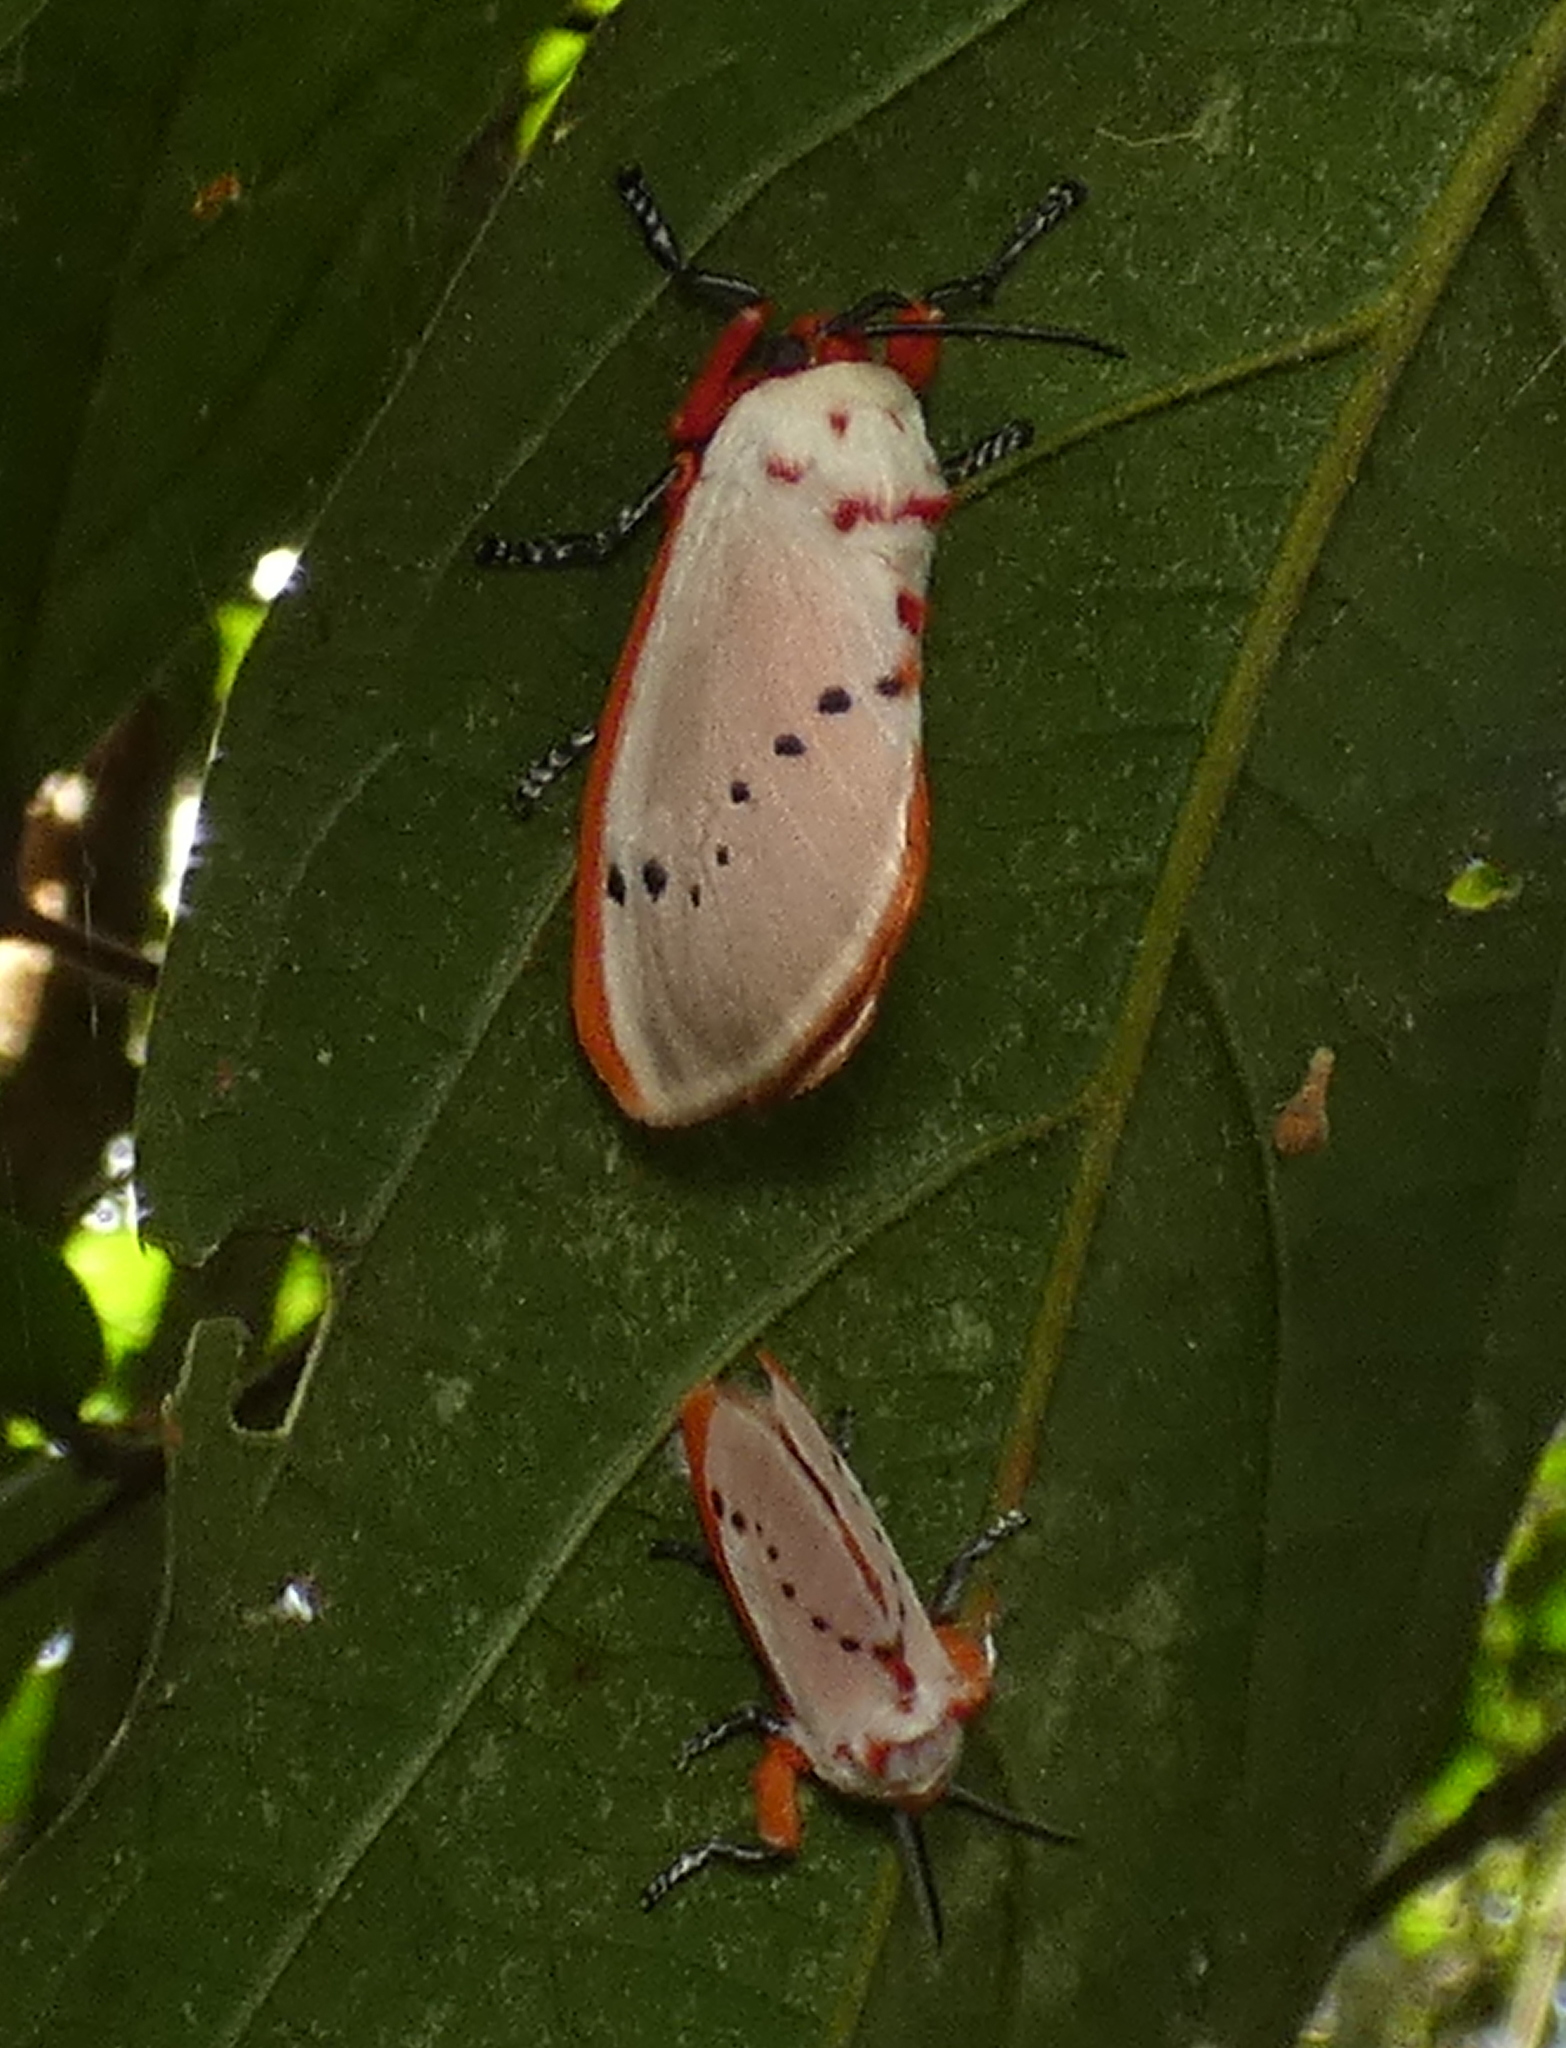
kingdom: Animalia
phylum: Arthropoda
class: Insecta
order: Lepidoptera
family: Megalopygidae
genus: Trosia
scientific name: Trosia semirufa
